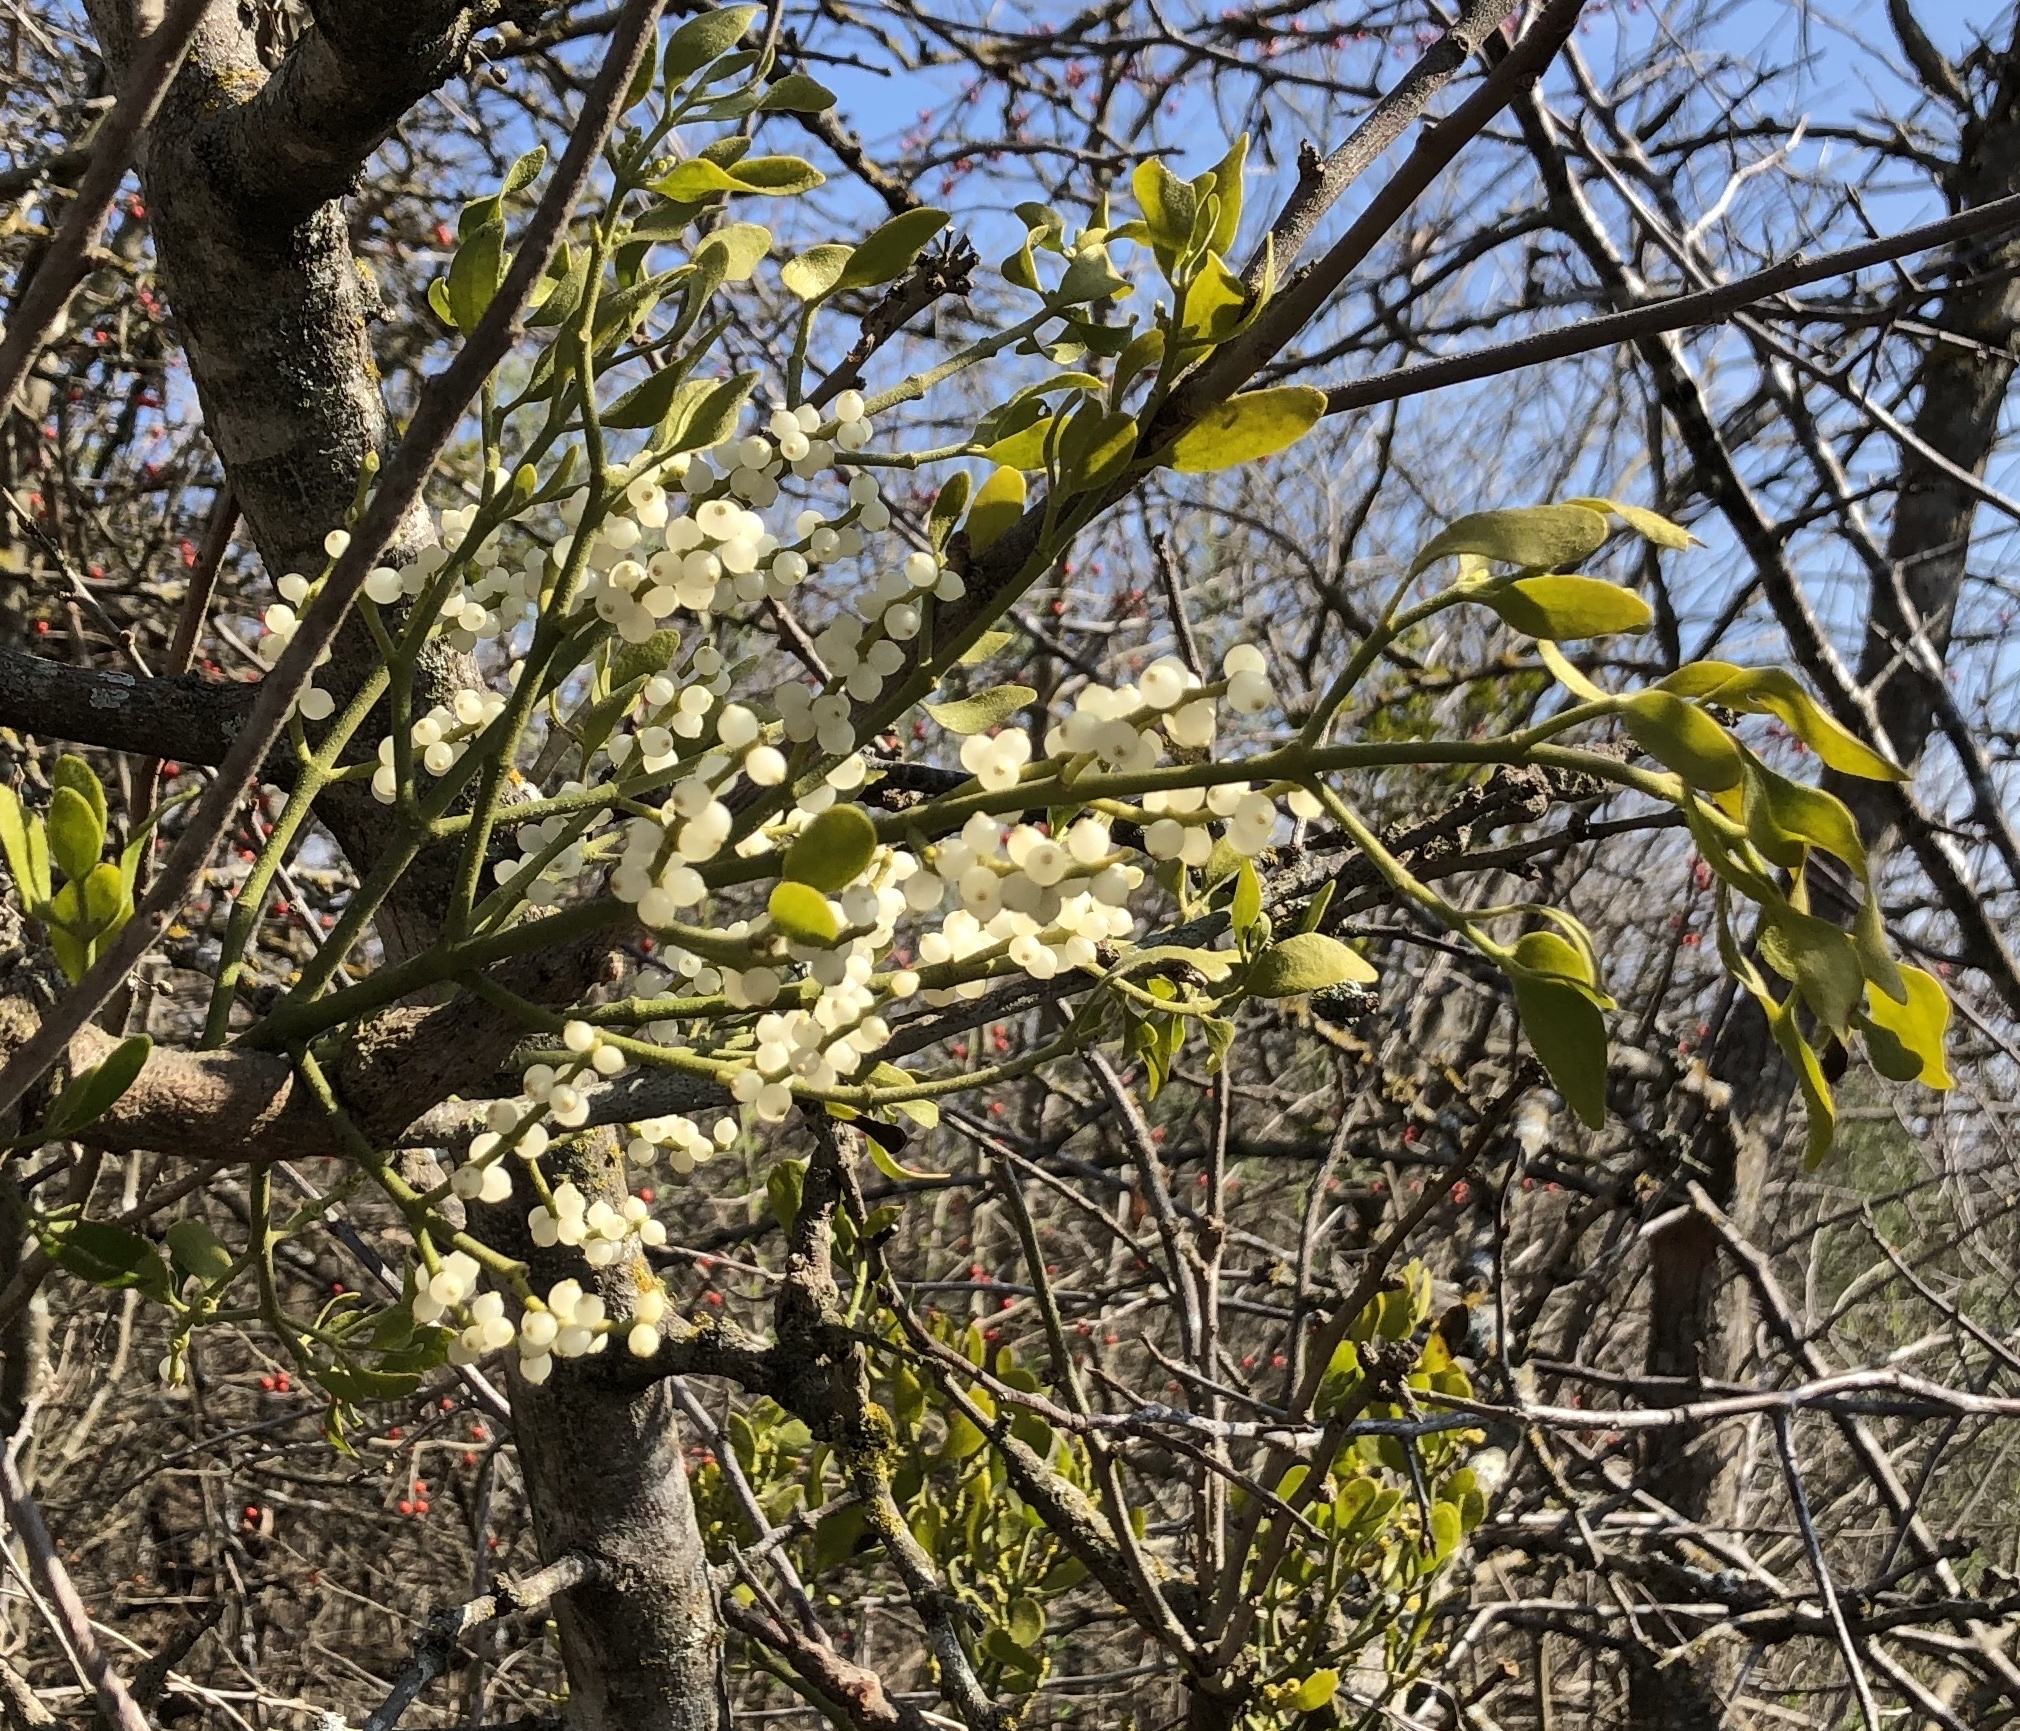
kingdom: Plantae
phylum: Tracheophyta
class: Magnoliopsida
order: Santalales
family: Viscaceae
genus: Phoradendron
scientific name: Phoradendron leucarpum
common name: Pacific mistletoe
